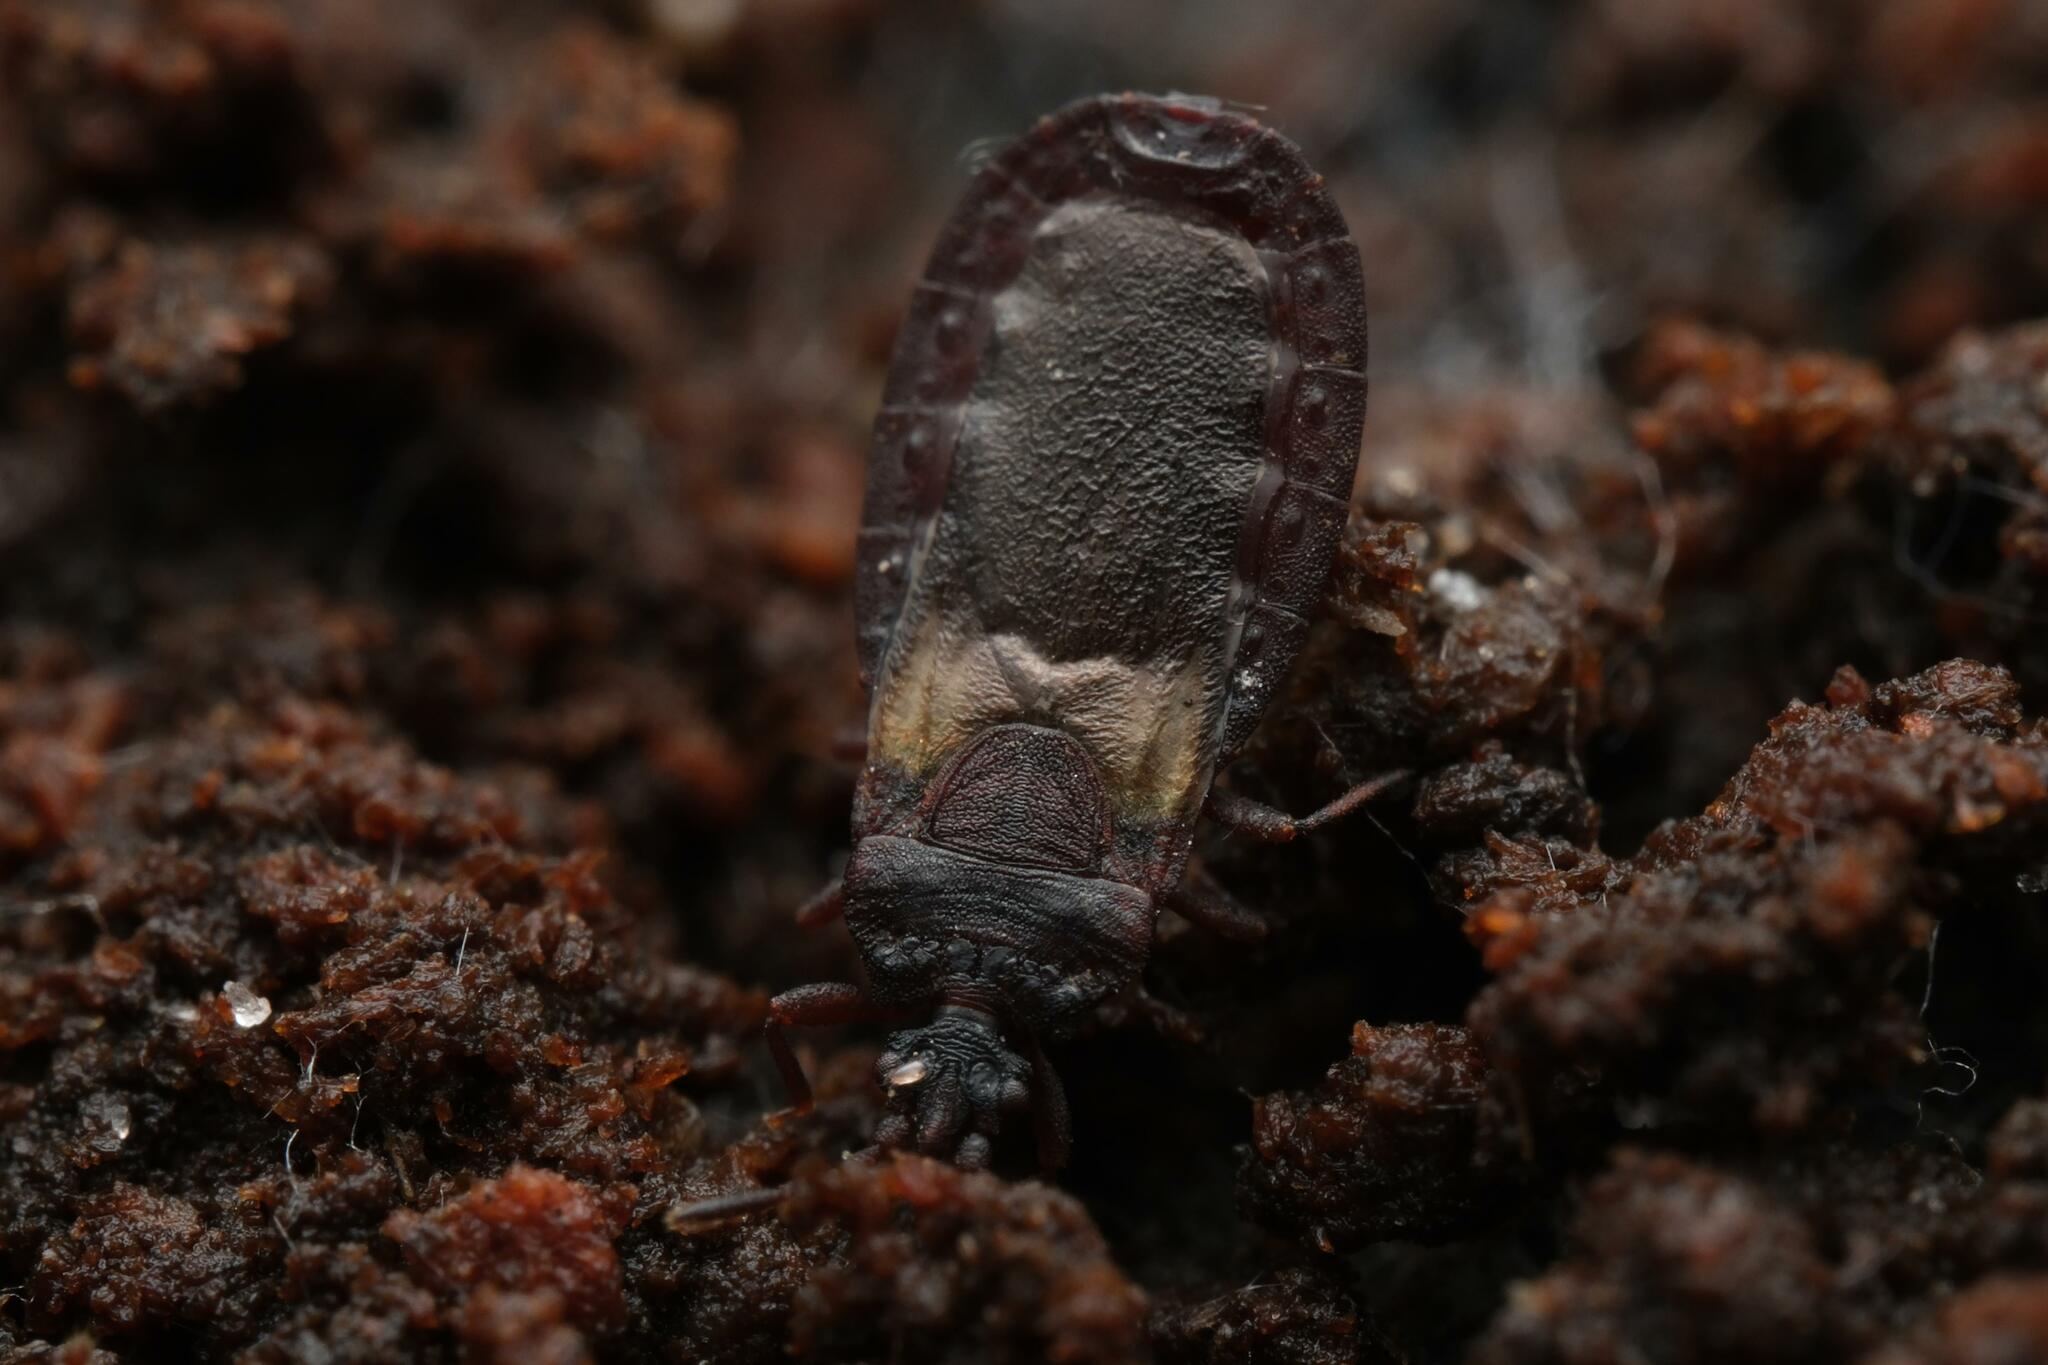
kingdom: Animalia
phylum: Arthropoda
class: Insecta
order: Hemiptera
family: Aradidae
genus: Aneurus
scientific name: Aneurus avenius
